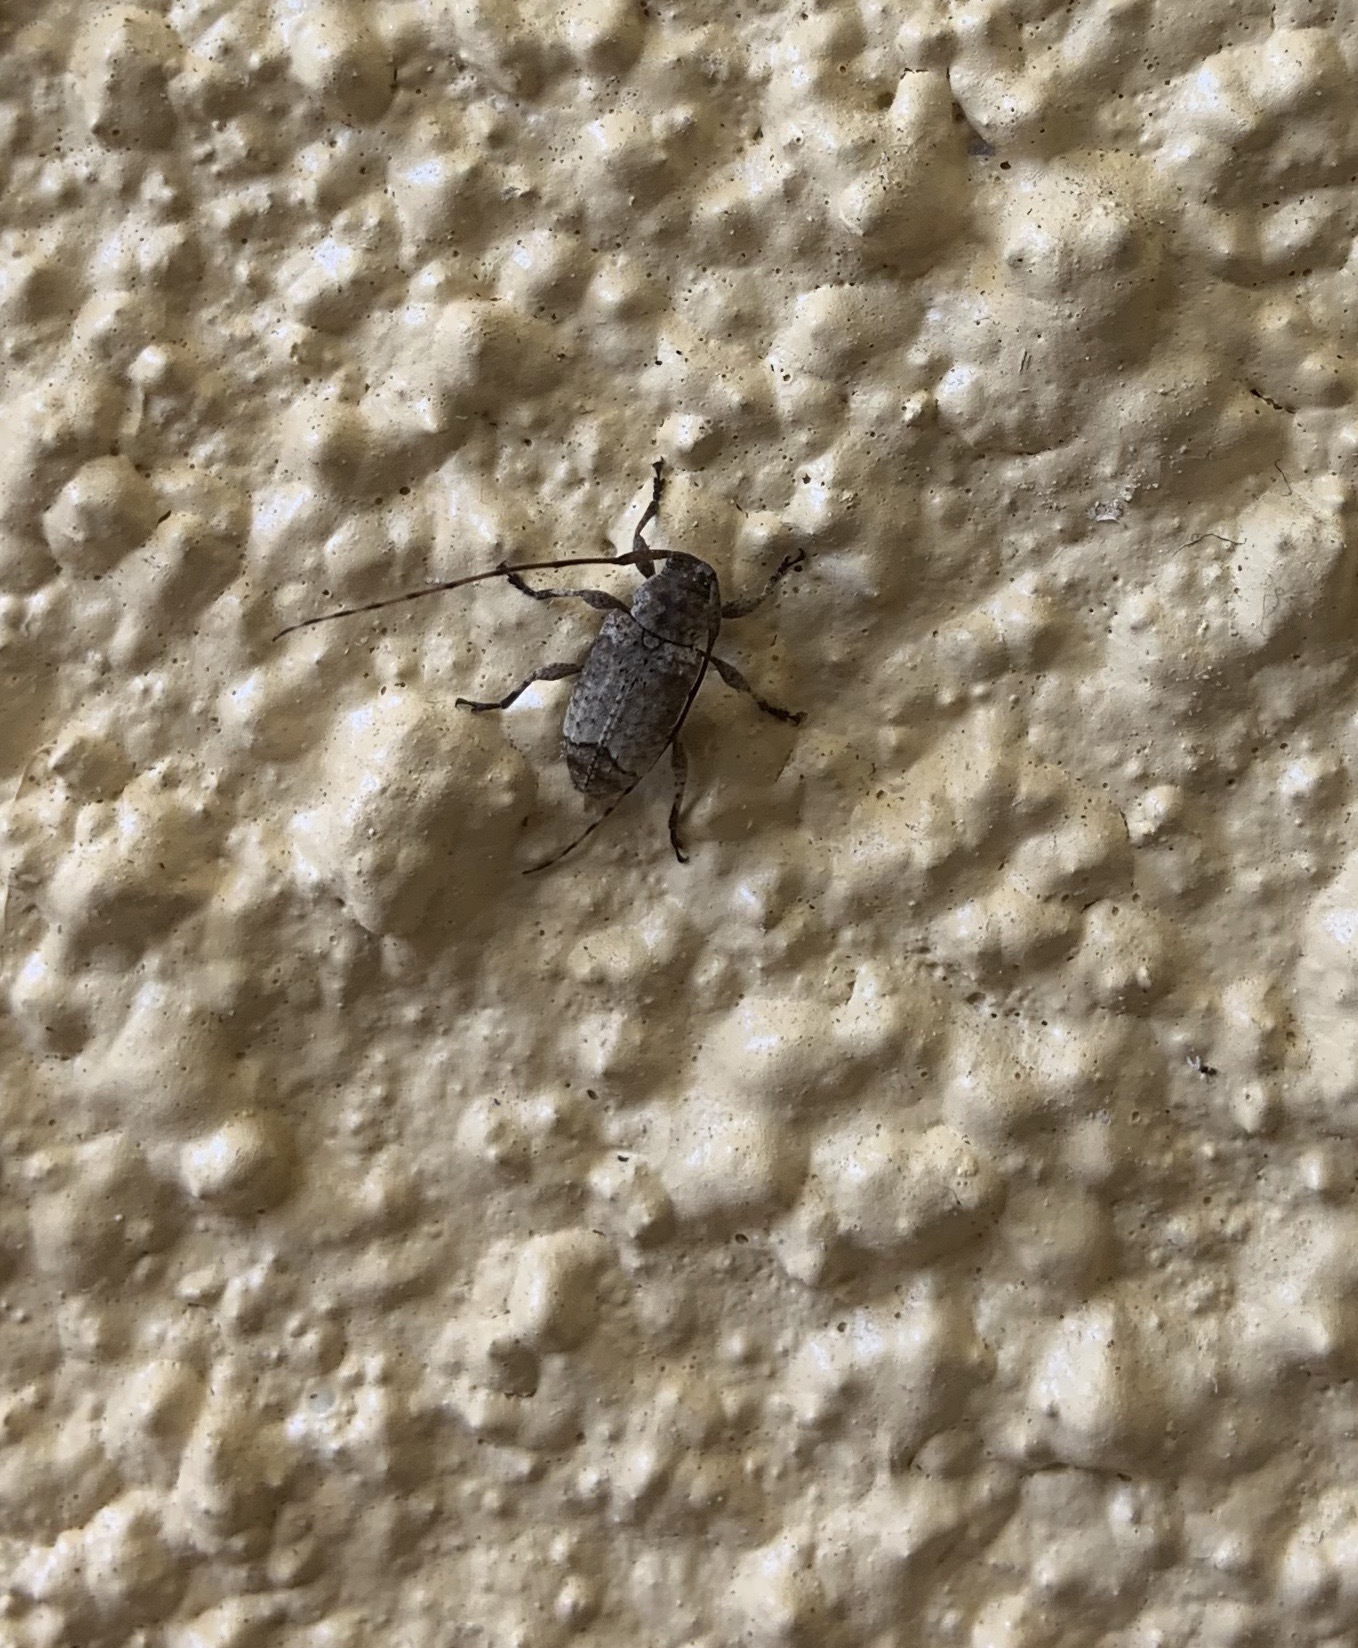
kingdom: Animalia
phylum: Arthropoda
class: Insecta
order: Coleoptera
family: Cerambycidae
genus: Sternidius
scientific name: Sternidius mimeticus
